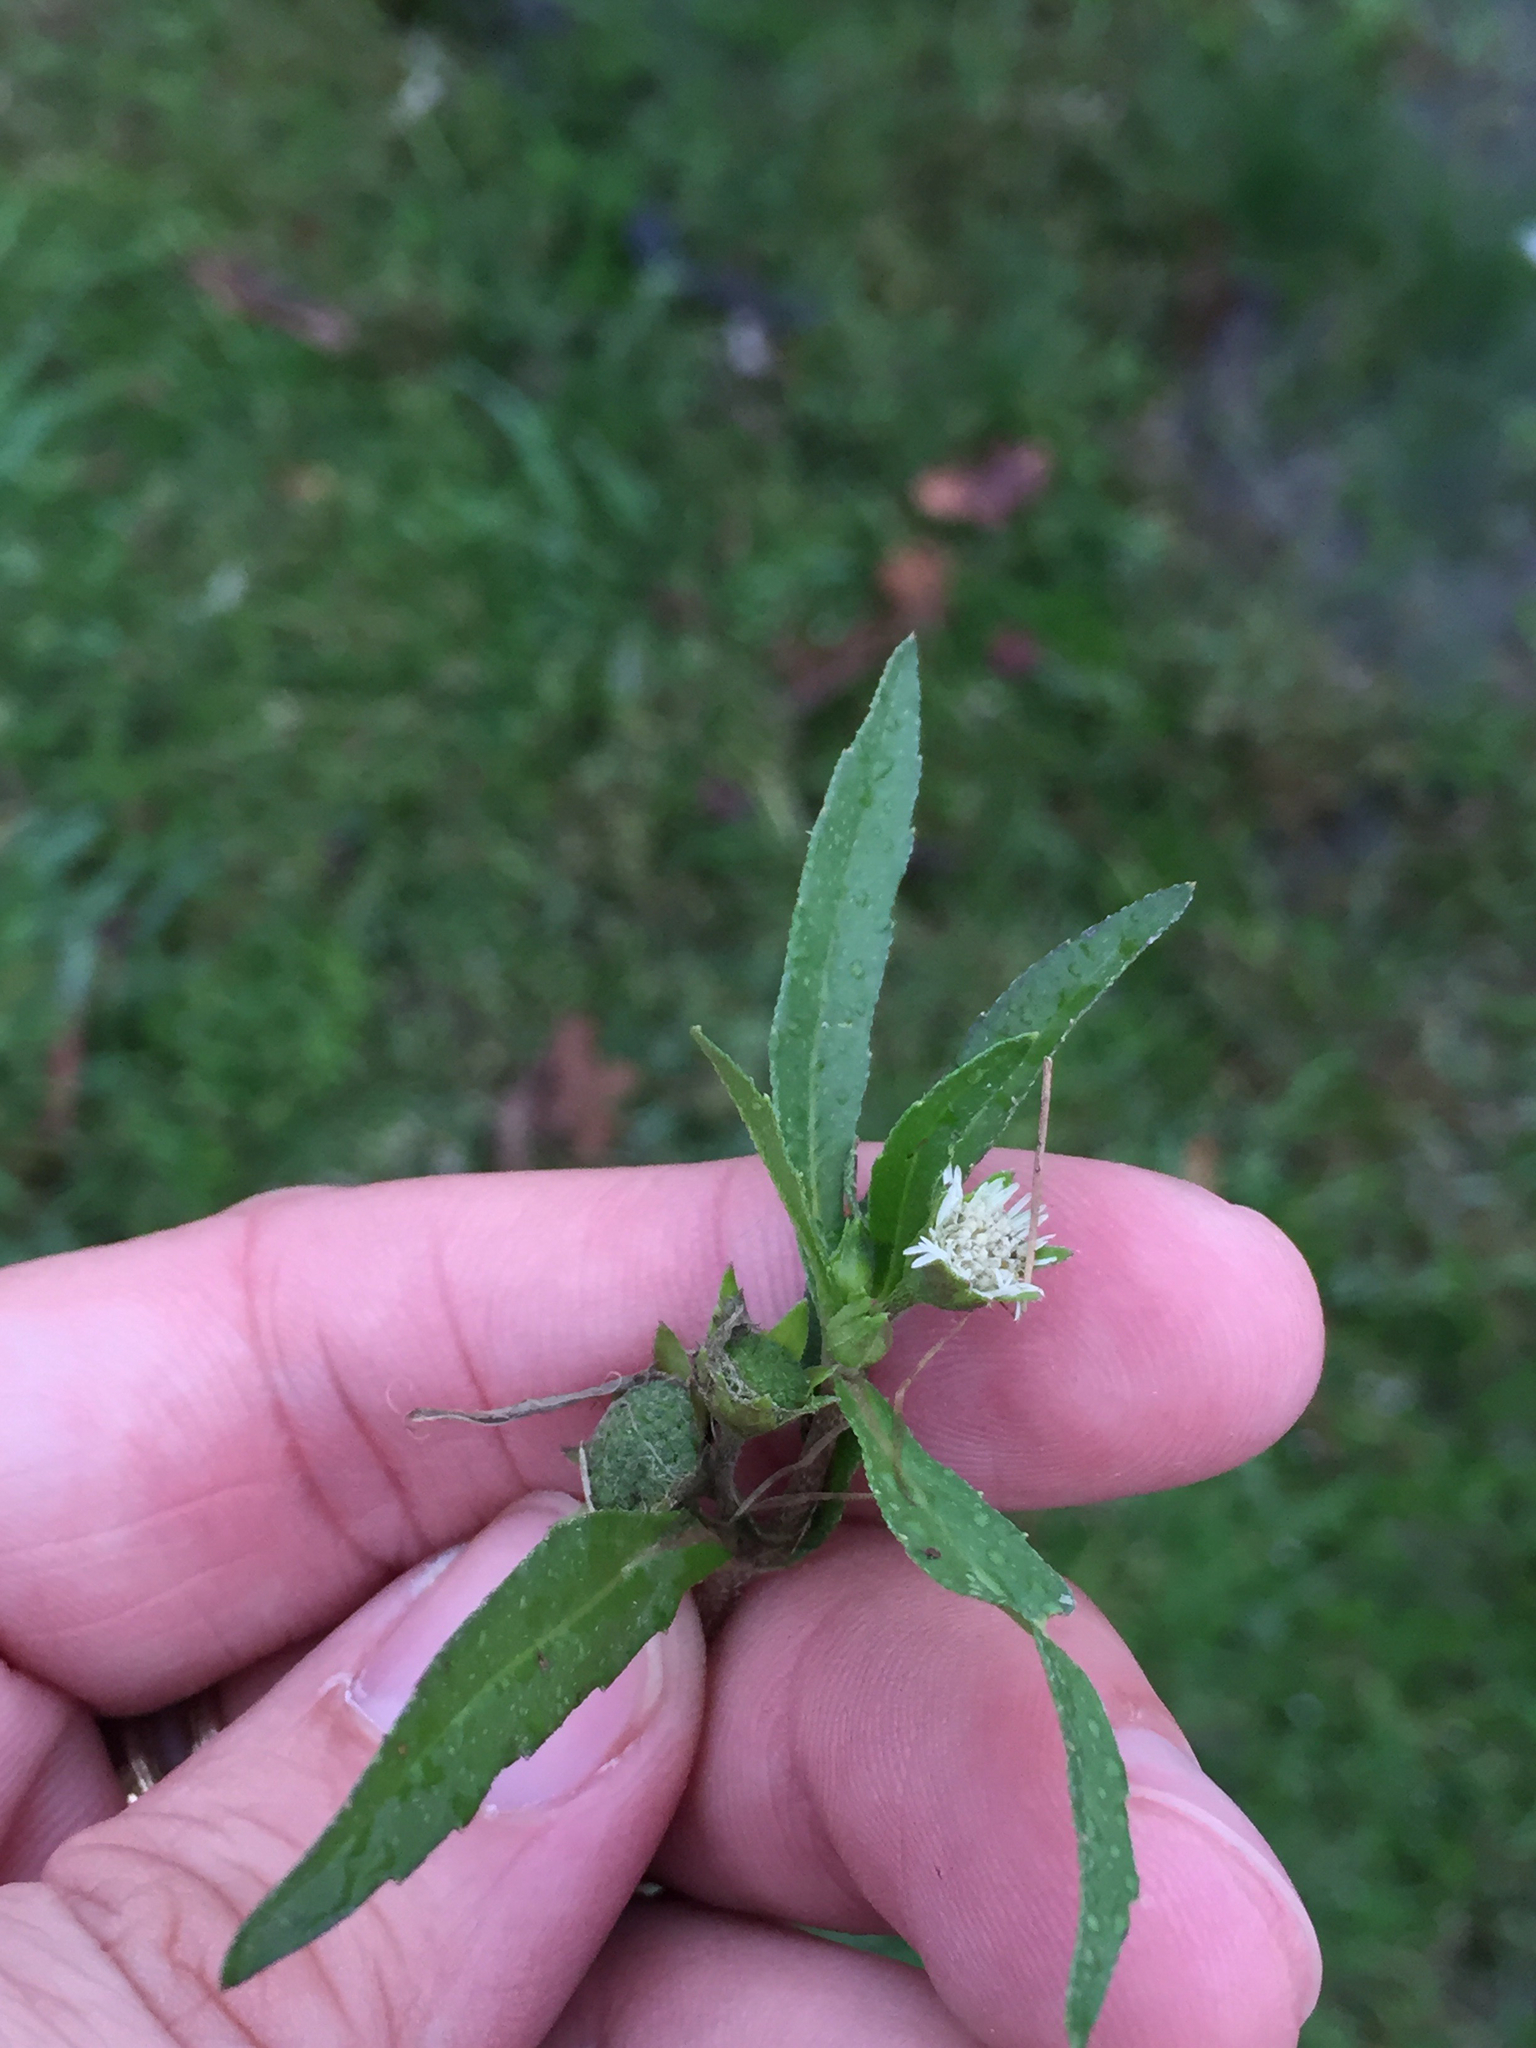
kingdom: Plantae
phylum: Tracheophyta
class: Magnoliopsida
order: Asterales
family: Asteraceae
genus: Eclipta
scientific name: Eclipta prostrata
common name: False daisy
